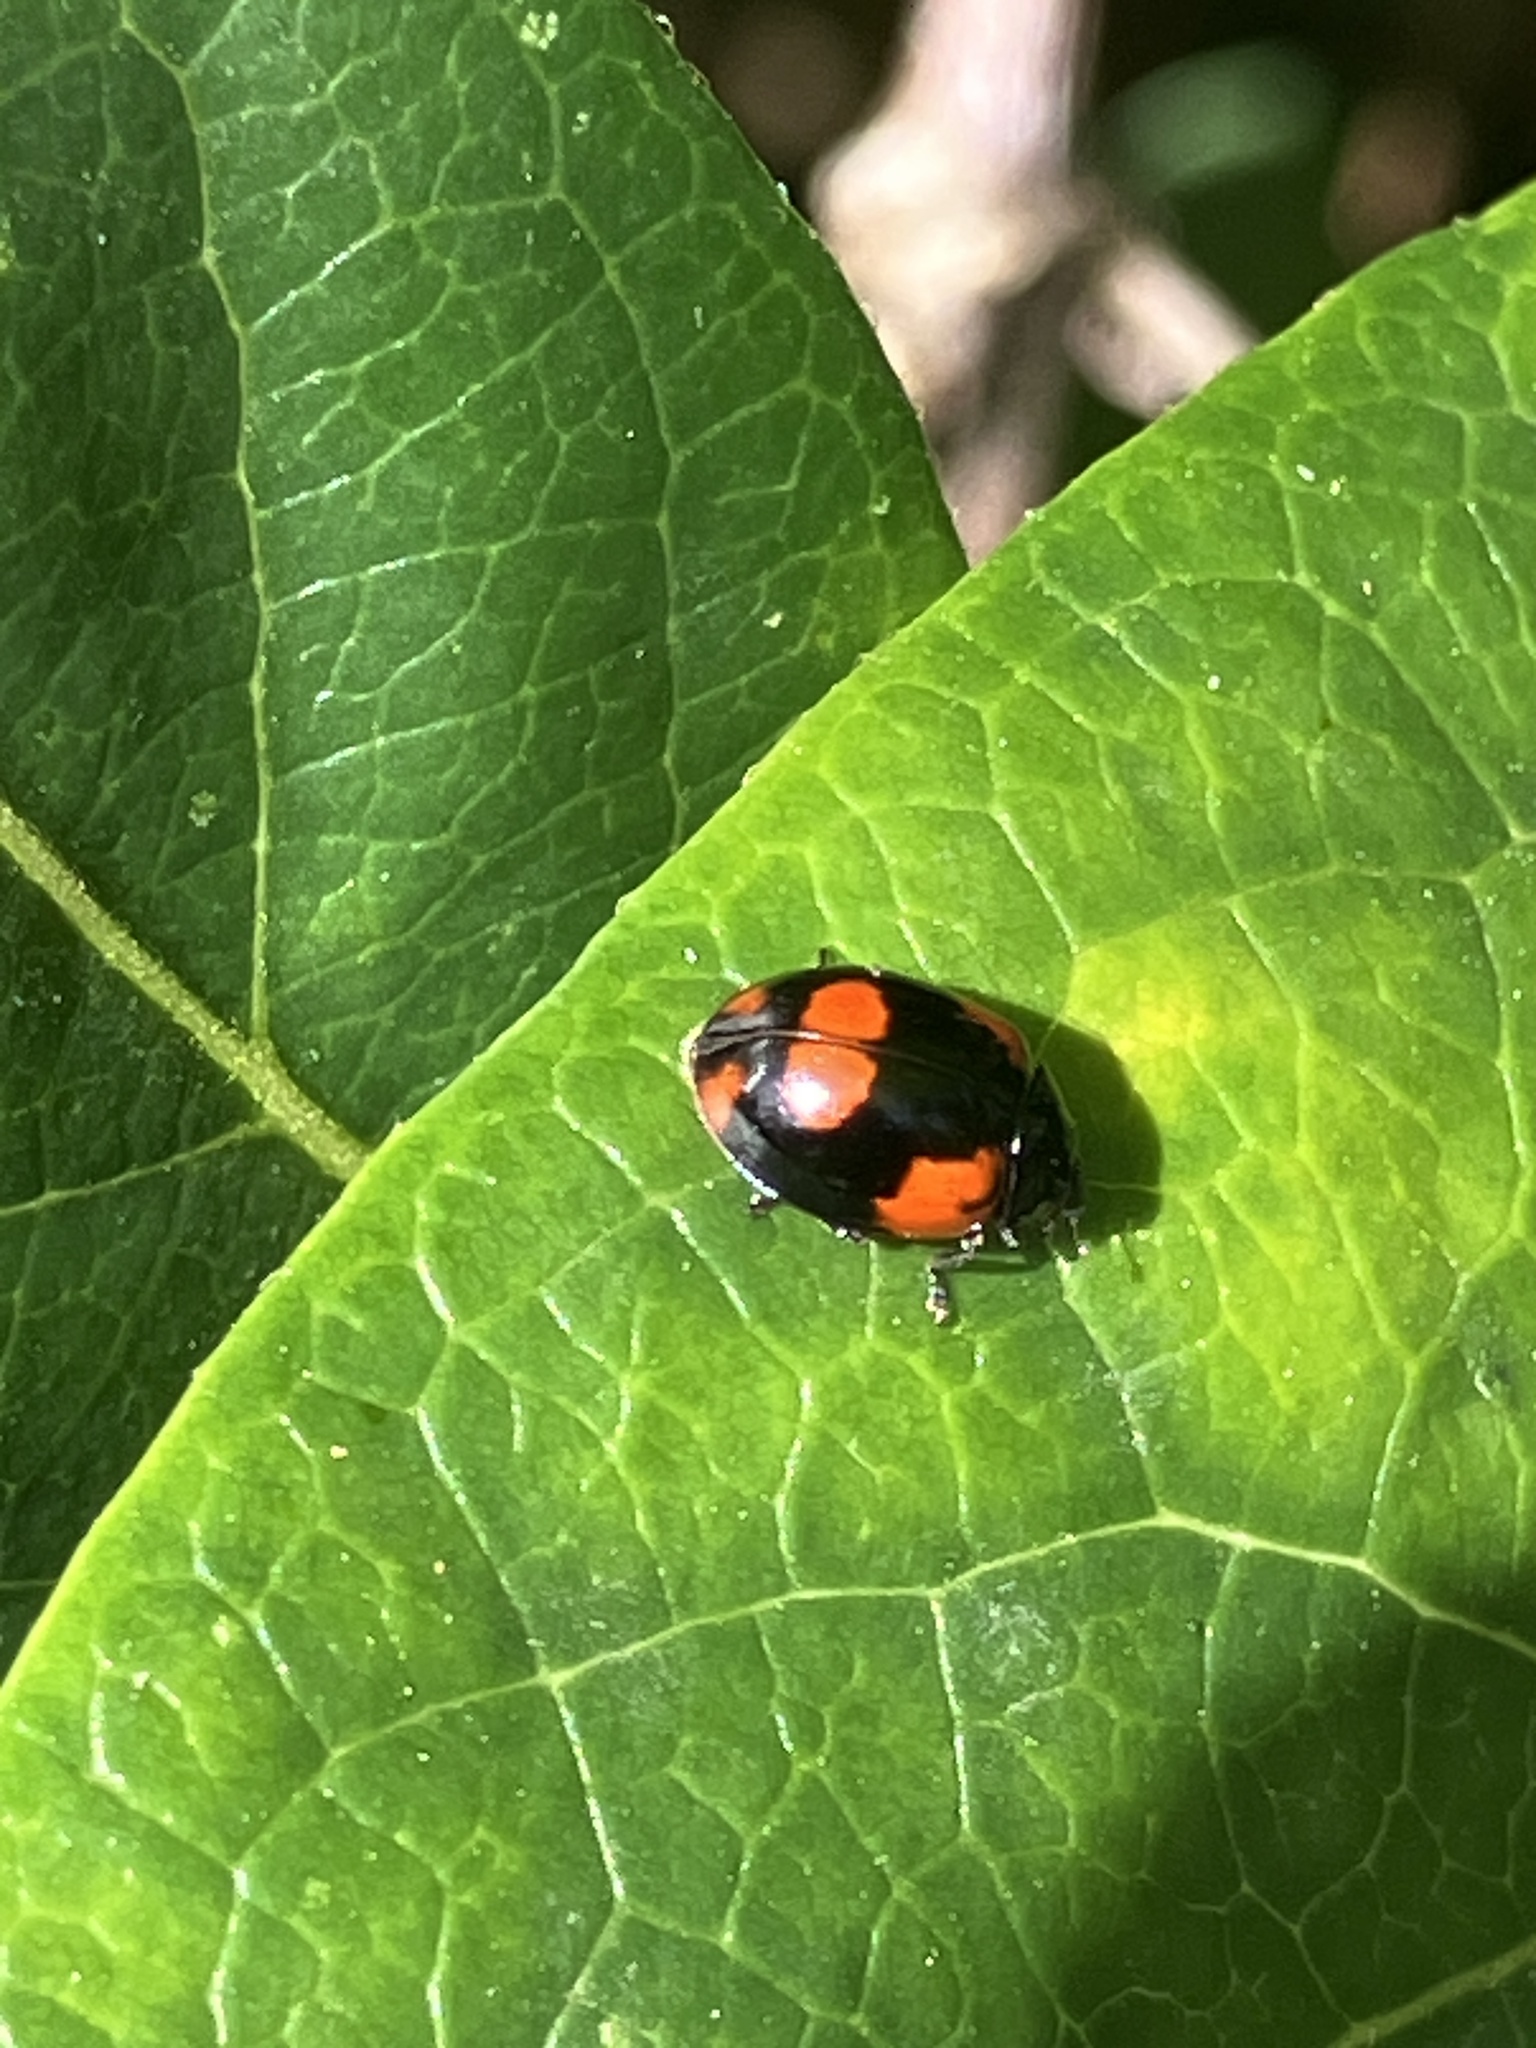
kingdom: Animalia
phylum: Arthropoda
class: Insecta
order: Coleoptera
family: Coccinellidae
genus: Adalia
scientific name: Adalia bipunctata
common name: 2-spot ladybird
